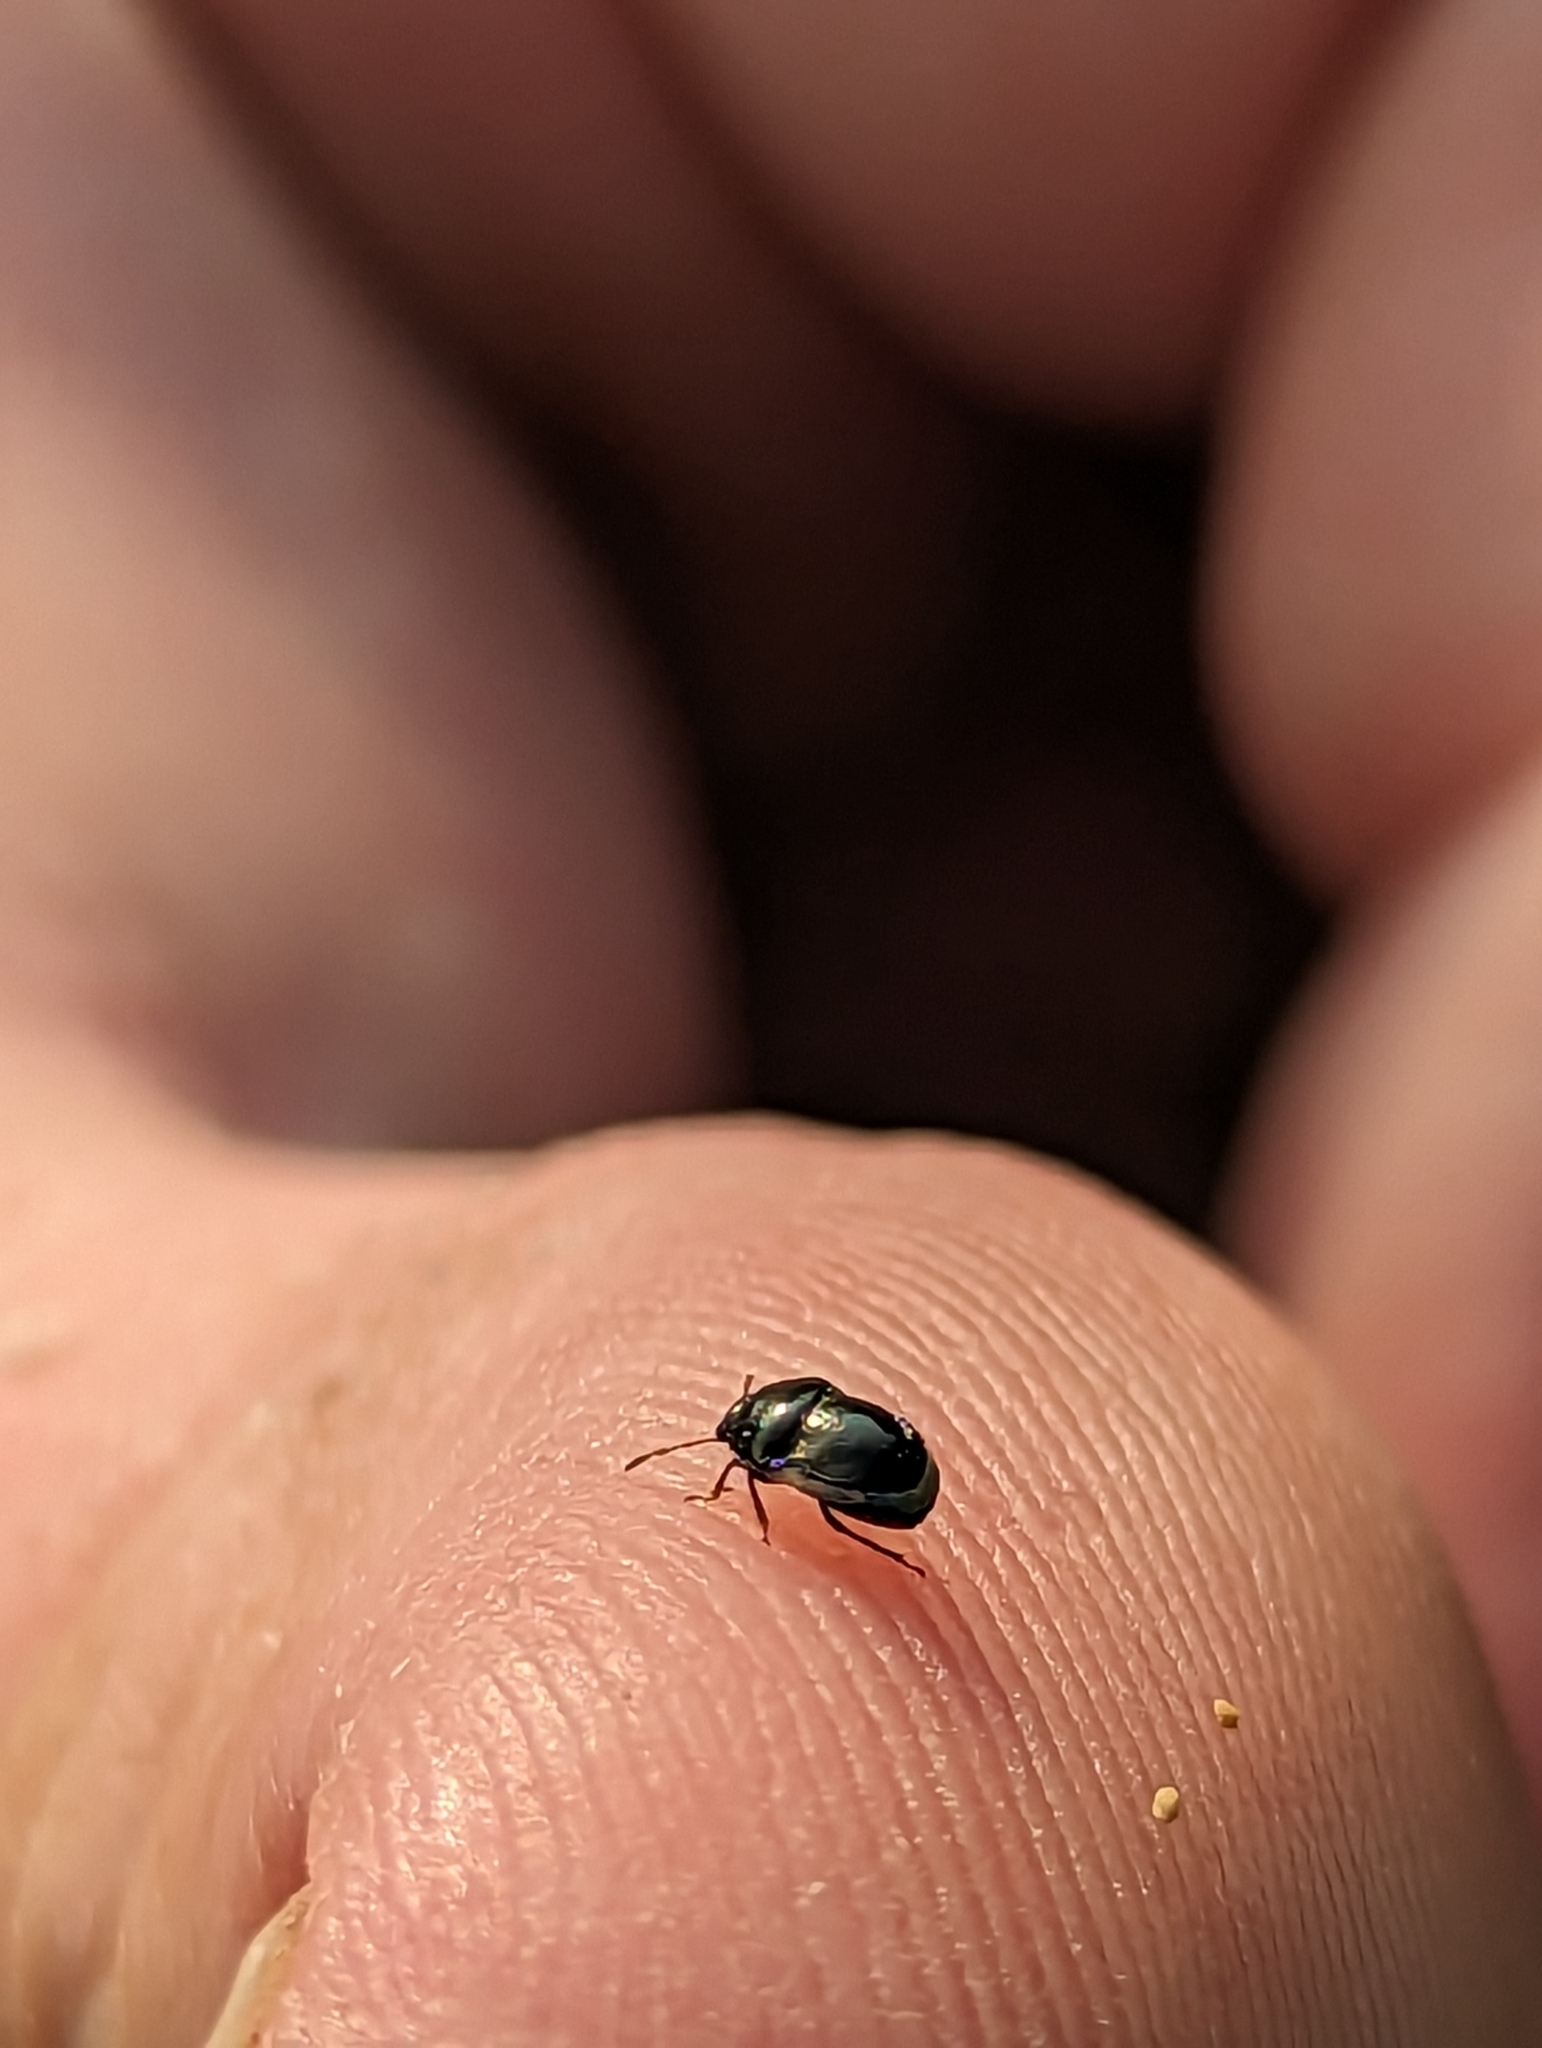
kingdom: Animalia
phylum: Arthropoda
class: Insecta
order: Hemiptera
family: Thyreocoridae
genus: Corimelaena
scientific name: Corimelaena pulicaria
